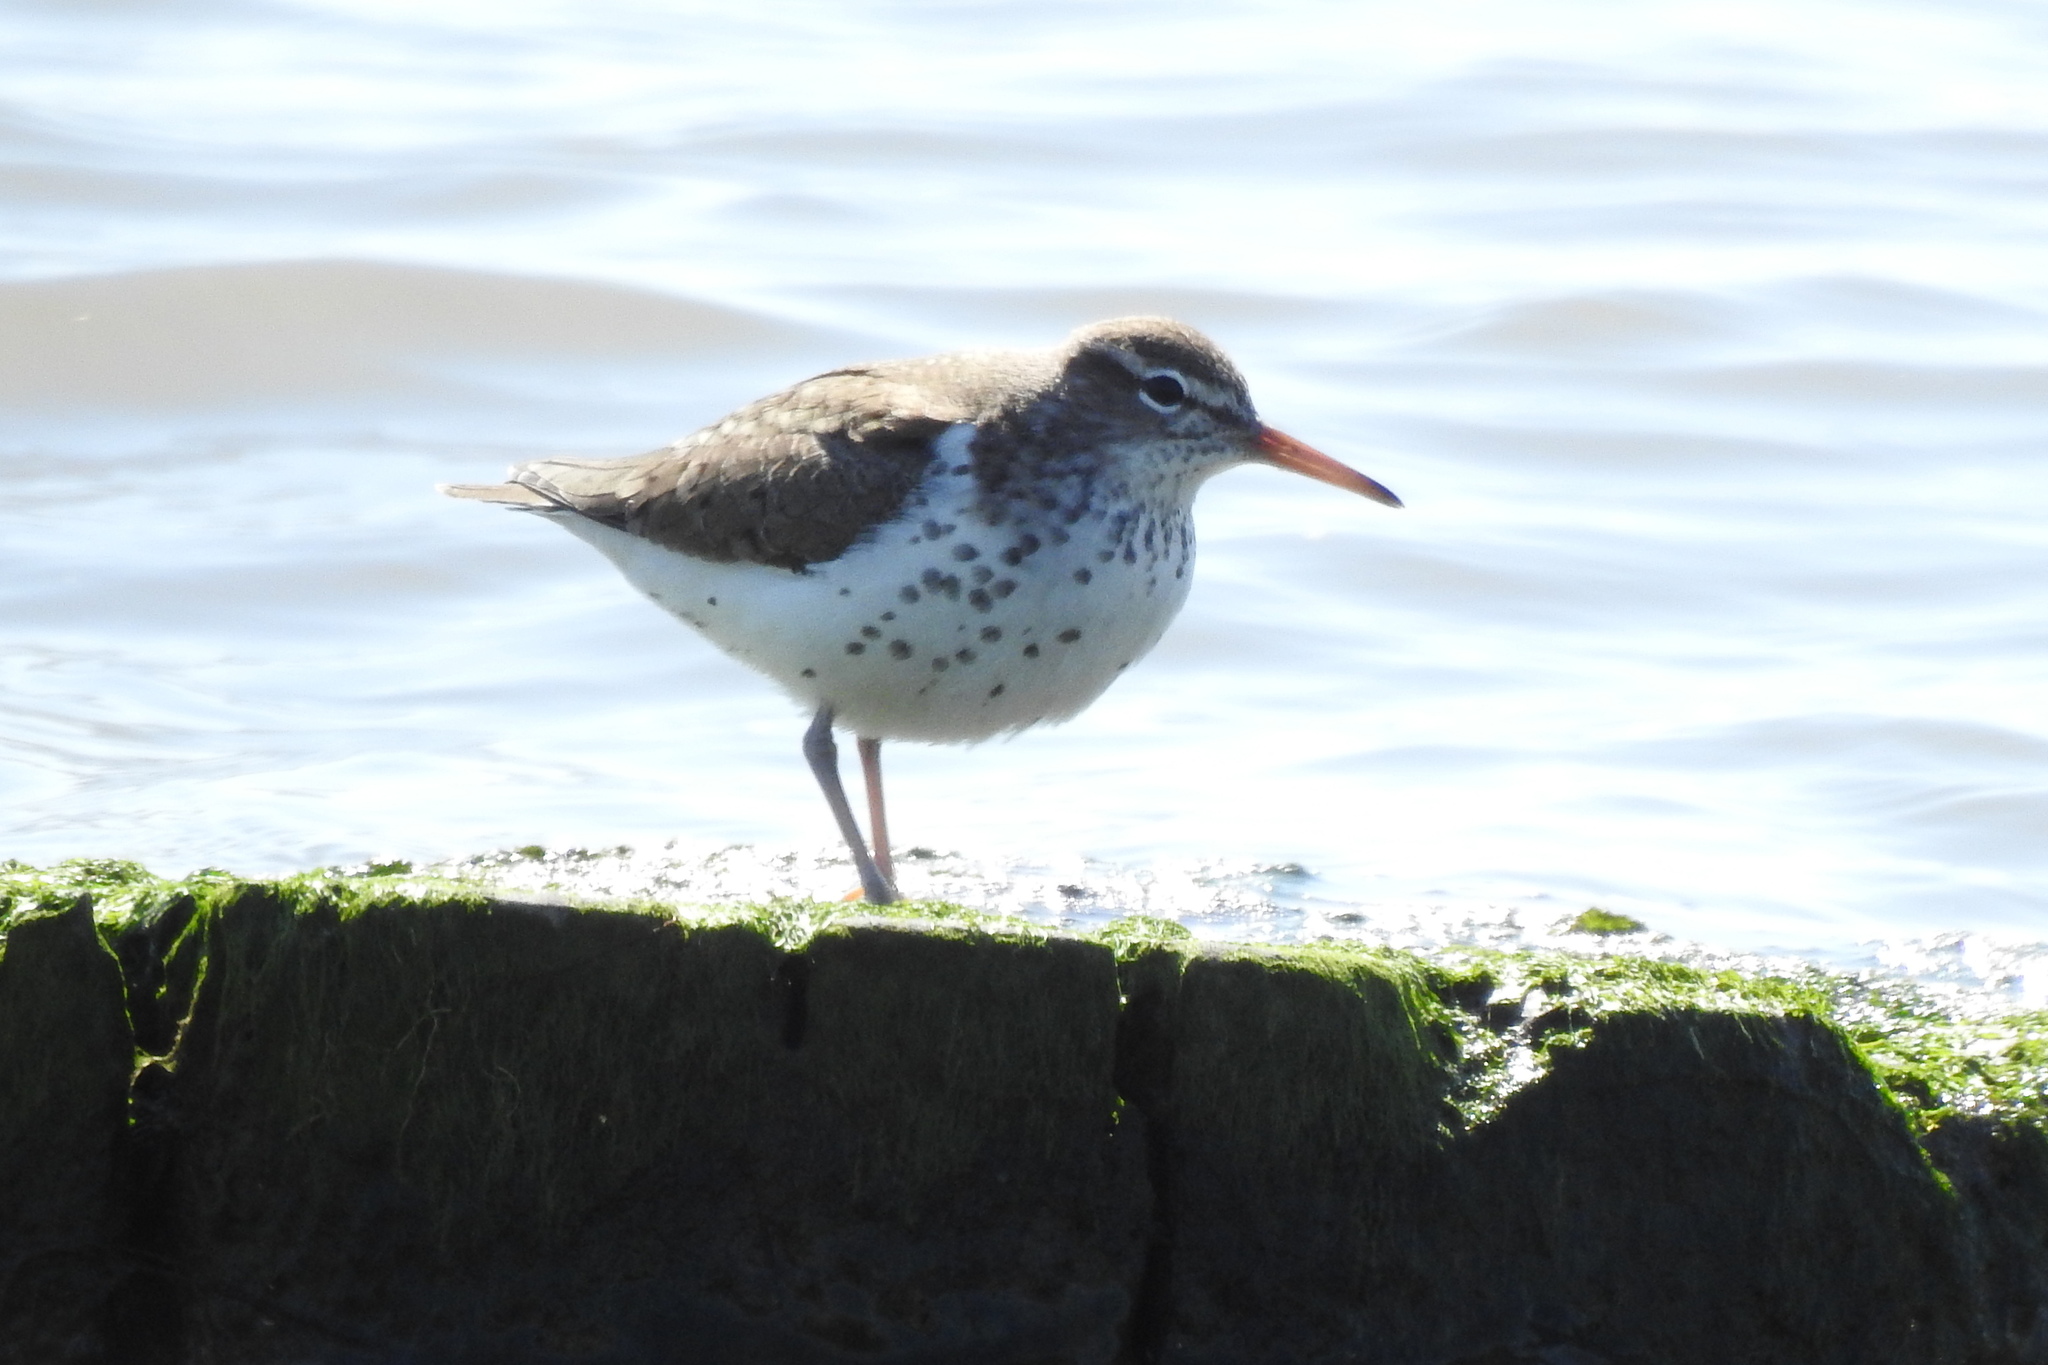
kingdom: Animalia
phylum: Chordata
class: Aves
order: Charadriiformes
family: Scolopacidae
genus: Actitis
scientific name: Actitis macularius
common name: Spotted sandpiper
